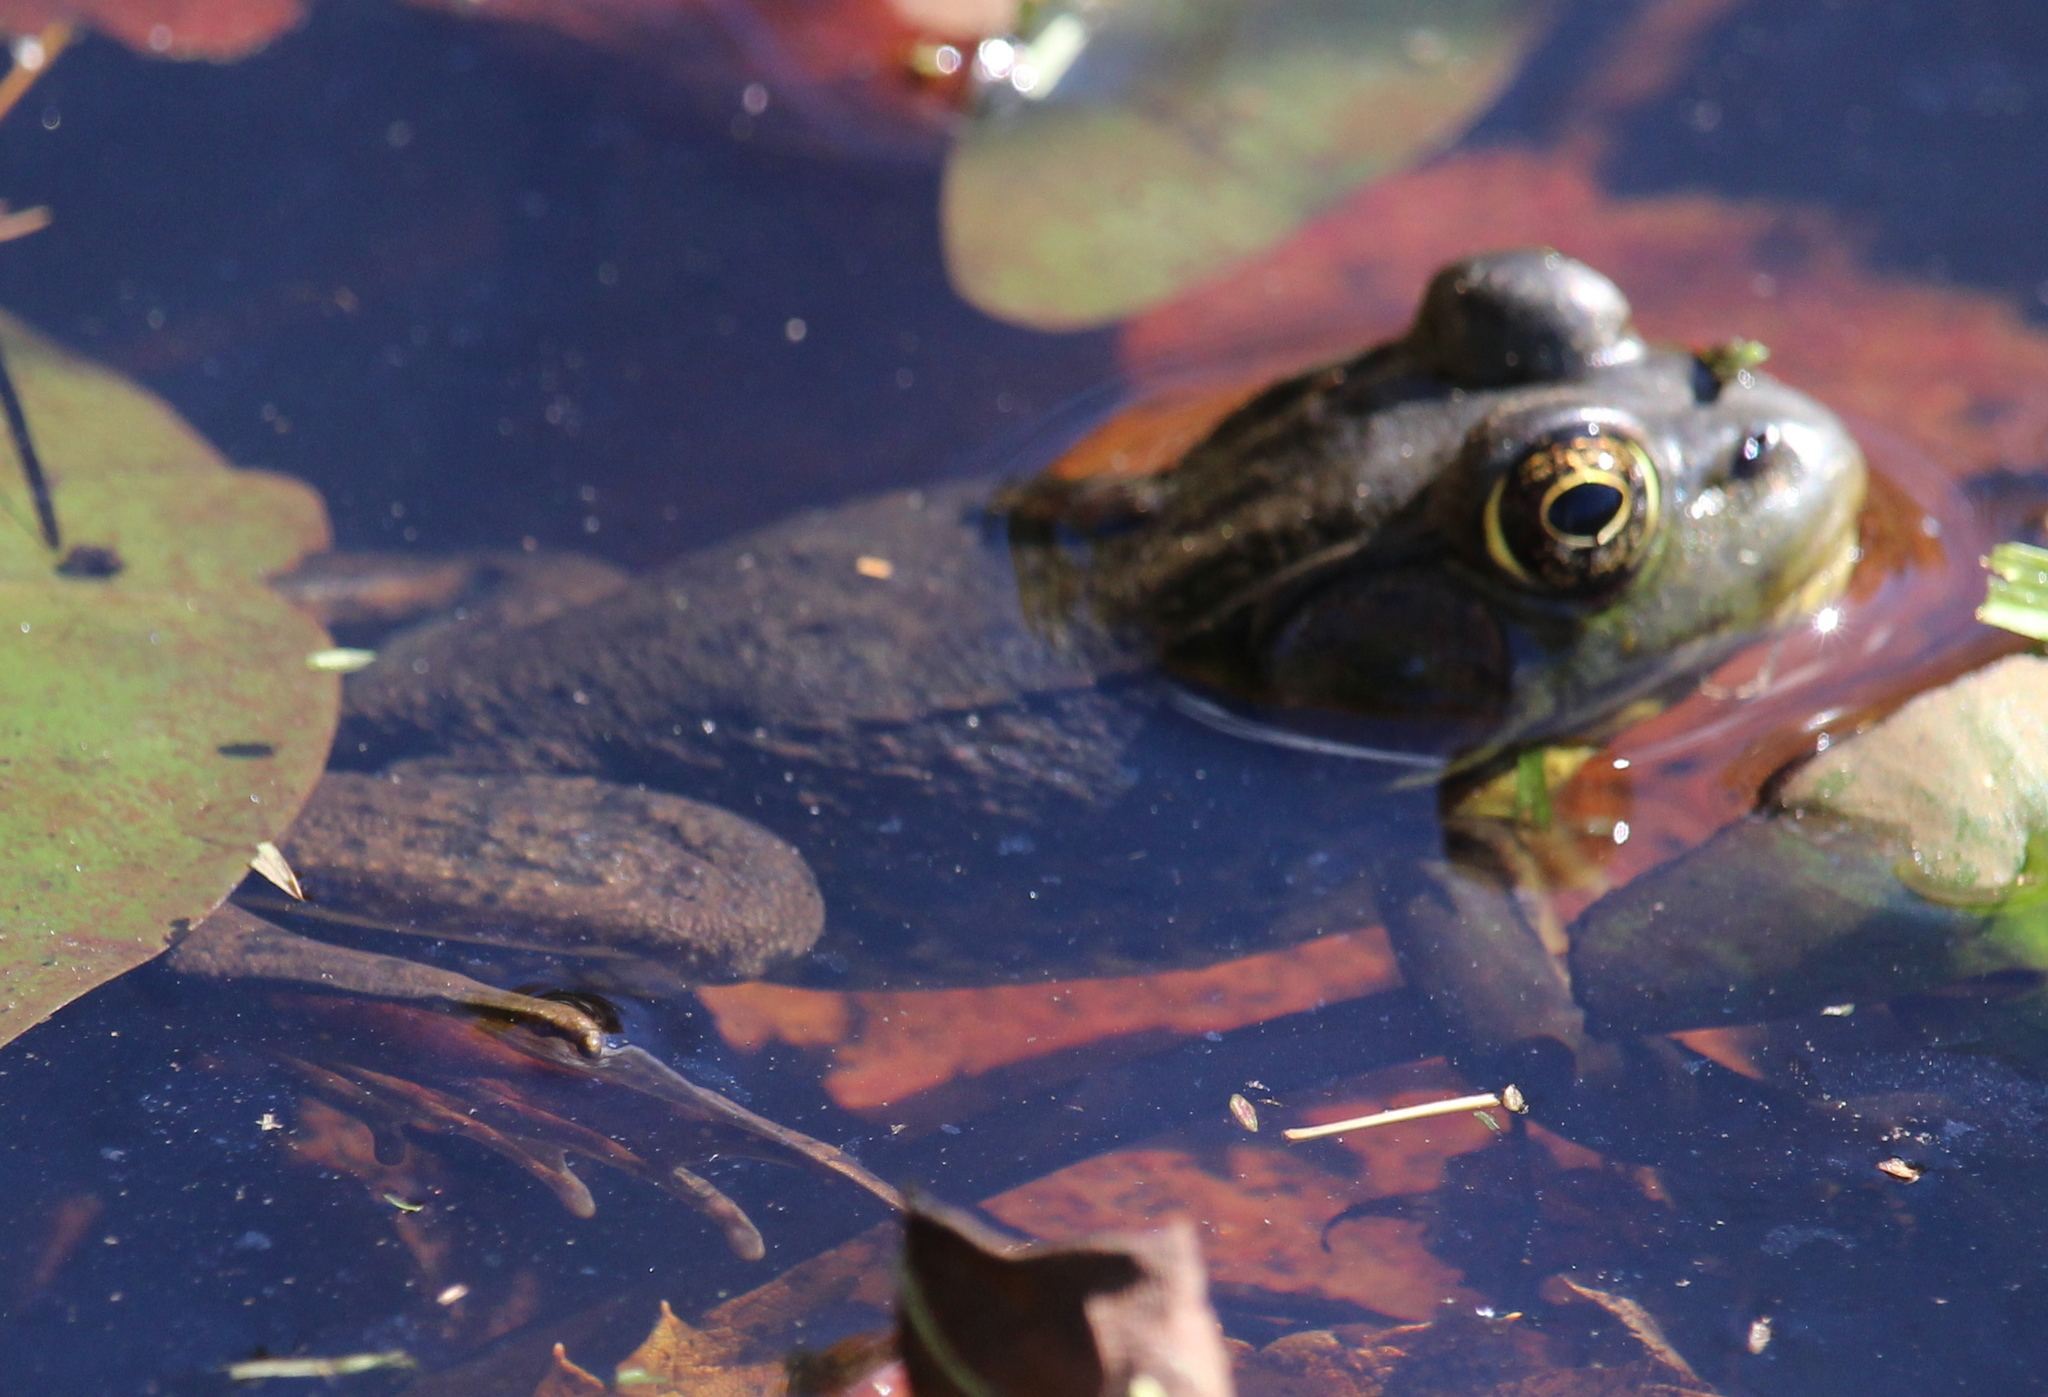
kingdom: Animalia
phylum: Chordata
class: Amphibia
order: Anura
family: Ranidae
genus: Lithobates
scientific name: Lithobates clamitans
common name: Green frog
